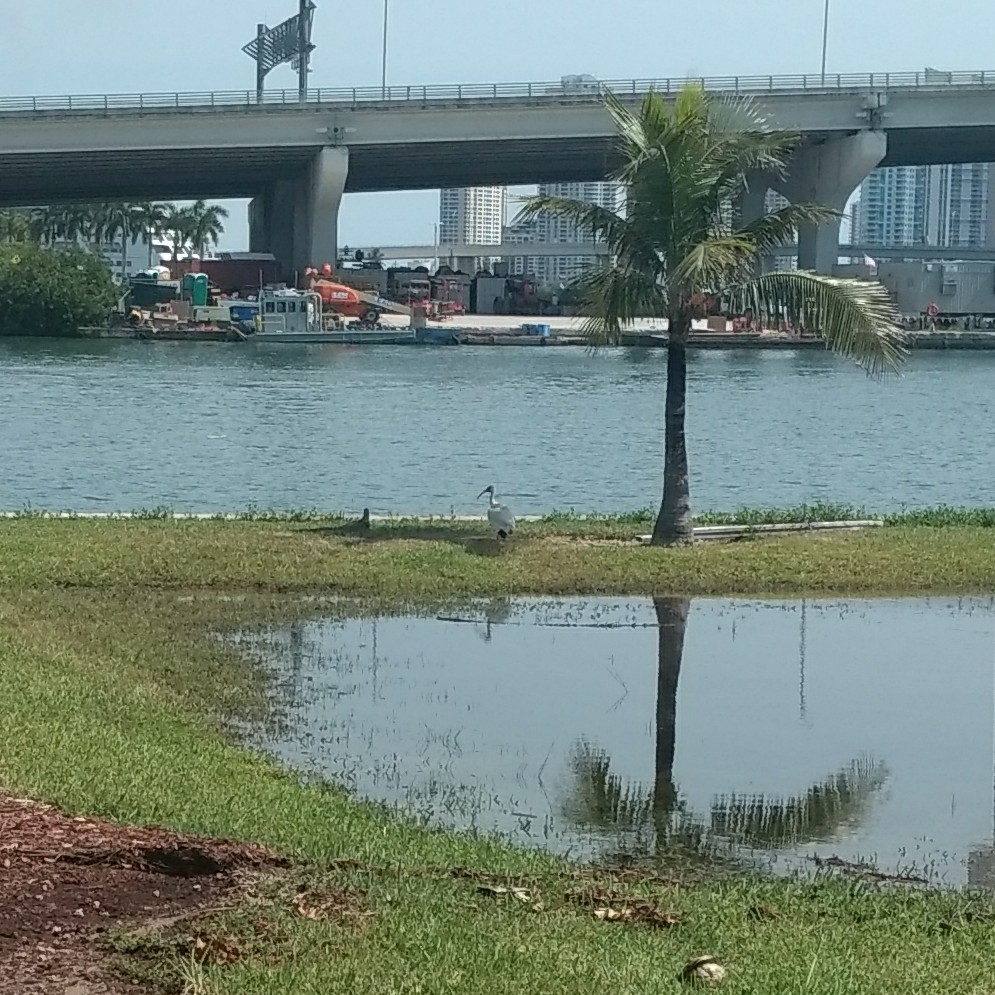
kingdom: Animalia
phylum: Chordata
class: Aves
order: Pelecaniformes
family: Threskiornithidae
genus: Eudocimus
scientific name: Eudocimus albus
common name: White ibis
